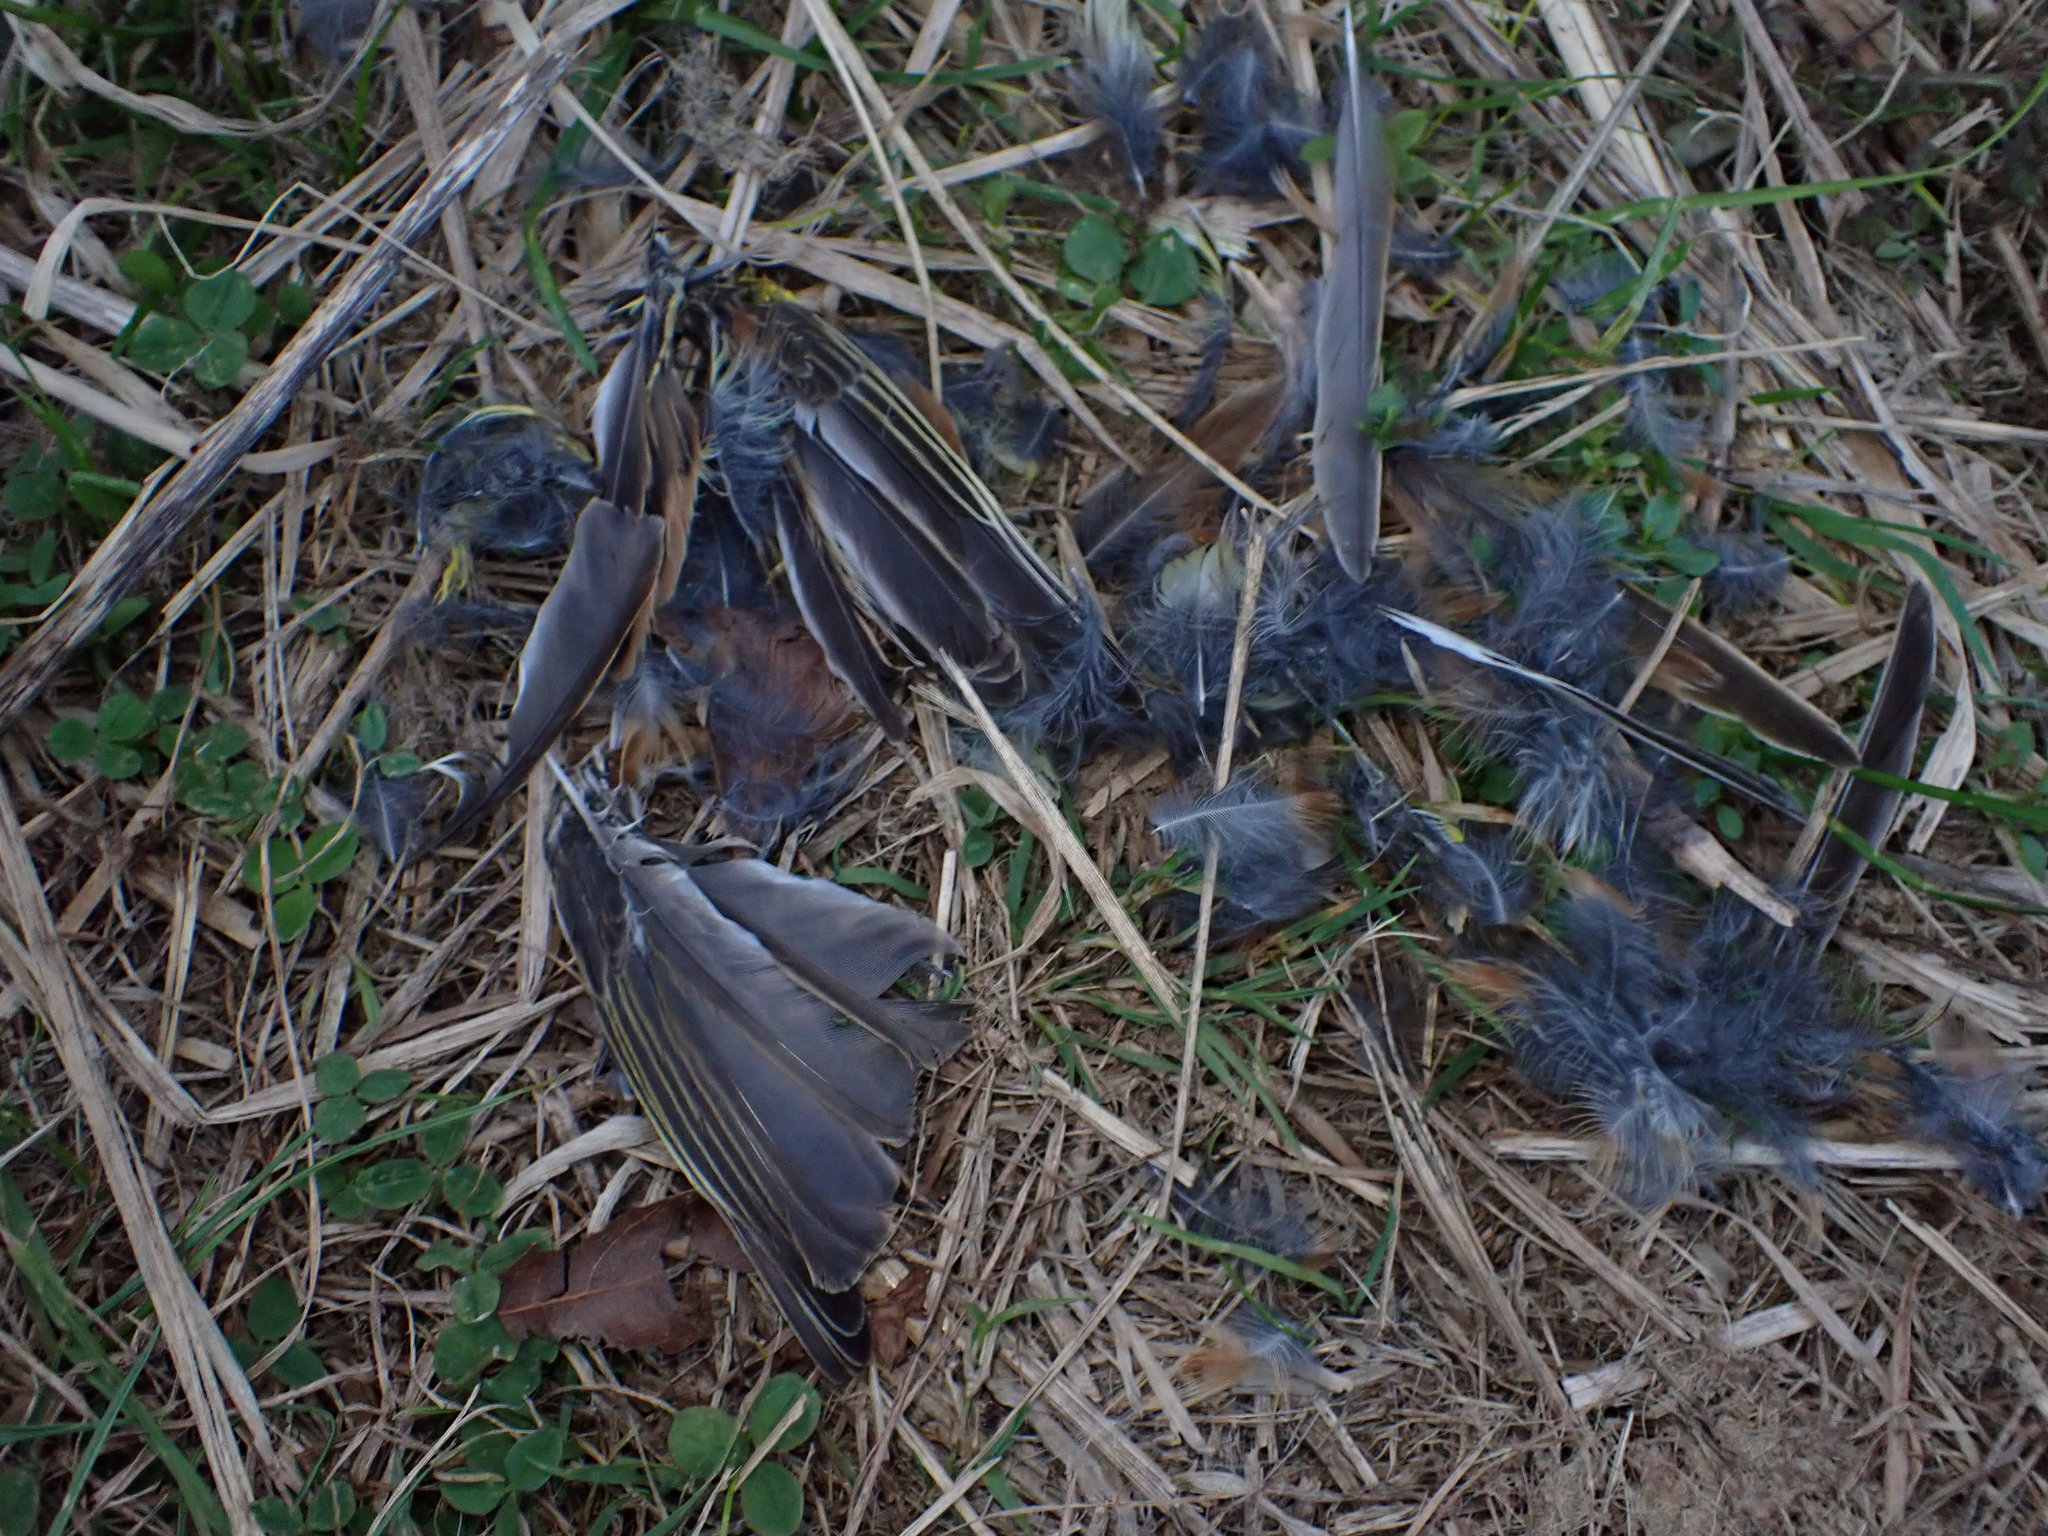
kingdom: Animalia
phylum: Chordata
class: Aves
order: Passeriformes
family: Emberizidae
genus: Emberiza
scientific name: Emberiza citrinella
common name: Yellowhammer
